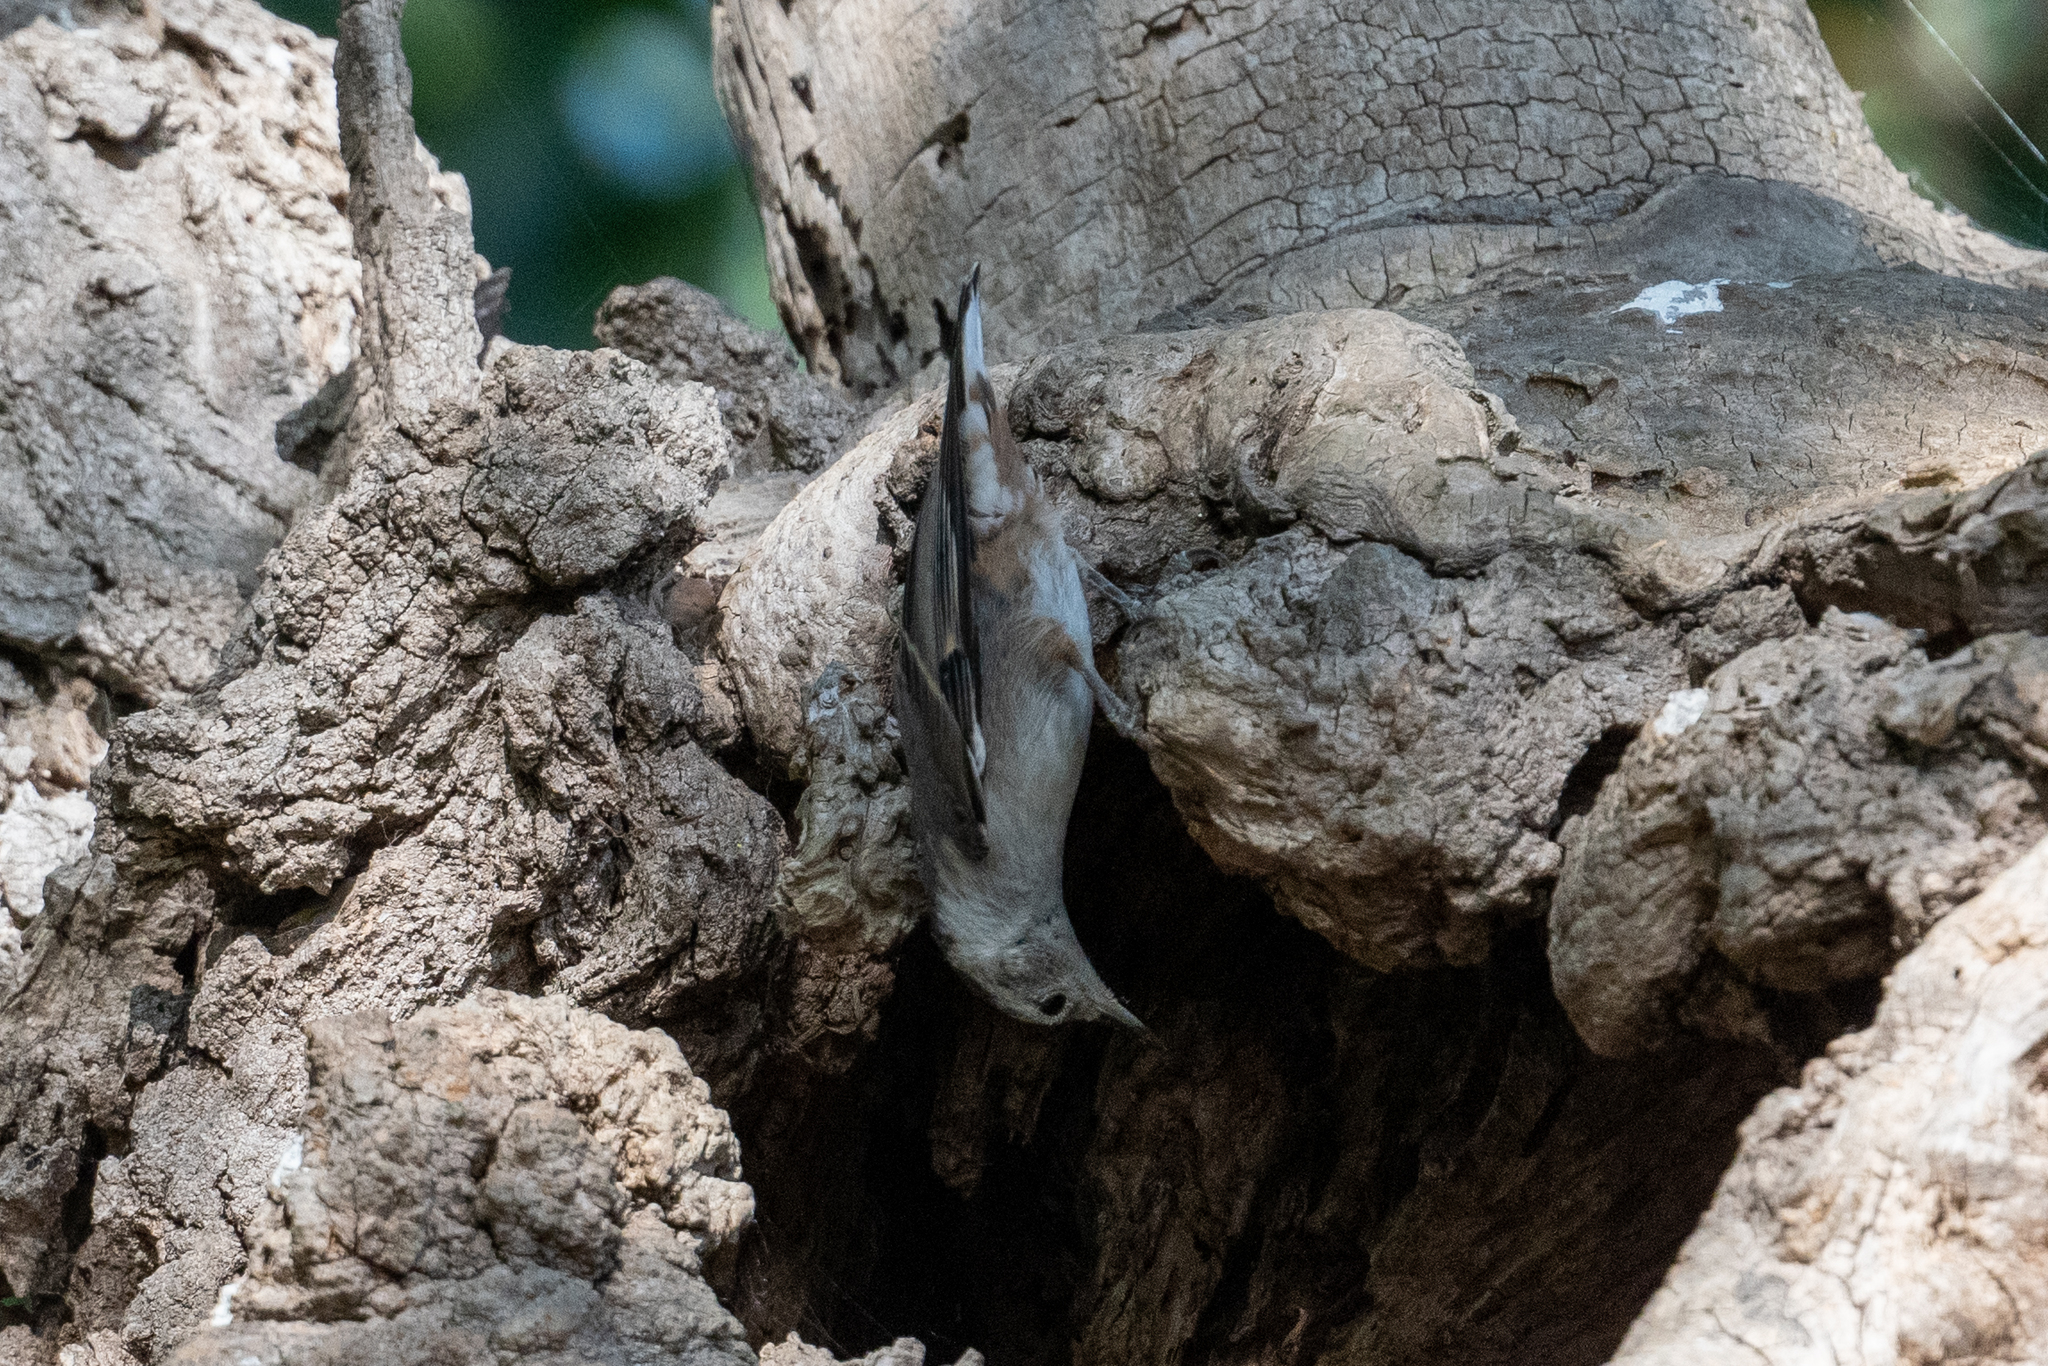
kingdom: Animalia
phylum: Chordata
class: Aves
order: Passeriformes
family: Sittidae
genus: Sitta
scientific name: Sitta carolinensis
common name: White-breasted nuthatch
